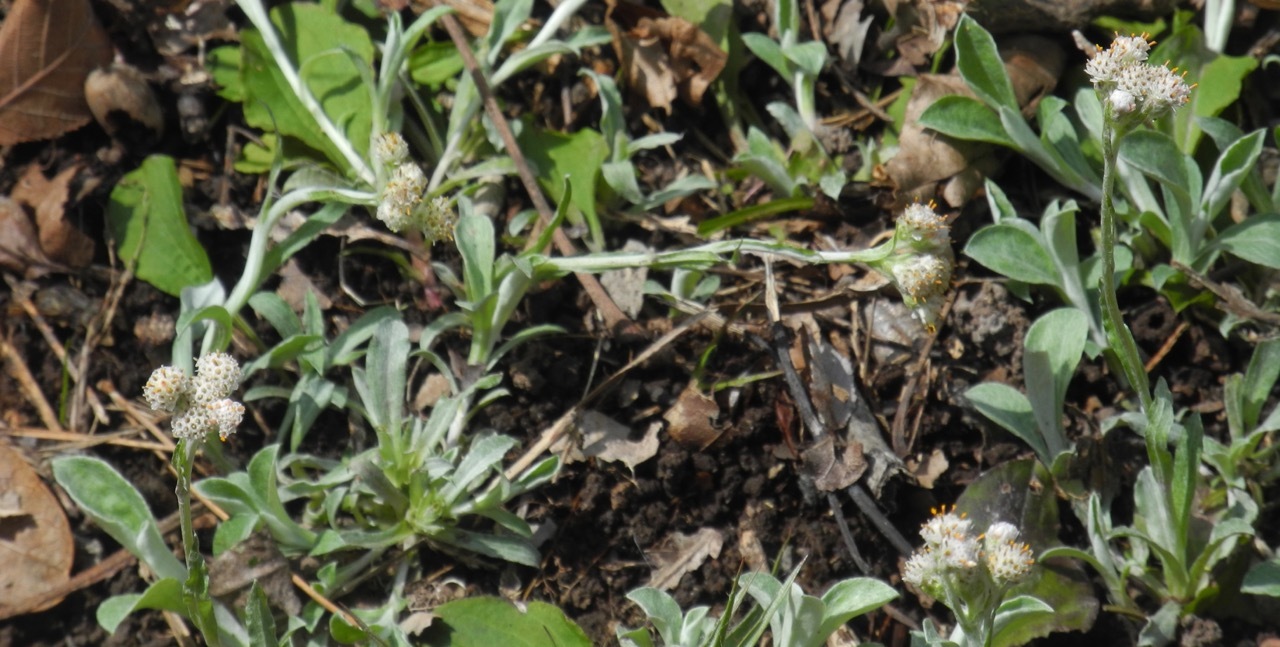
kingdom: Plantae
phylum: Tracheophyta
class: Magnoliopsida
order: Asterales
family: Asteraceae
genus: Antennaria
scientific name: Antennaria plantaginifolia
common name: Plantain-leaved pussytoes
